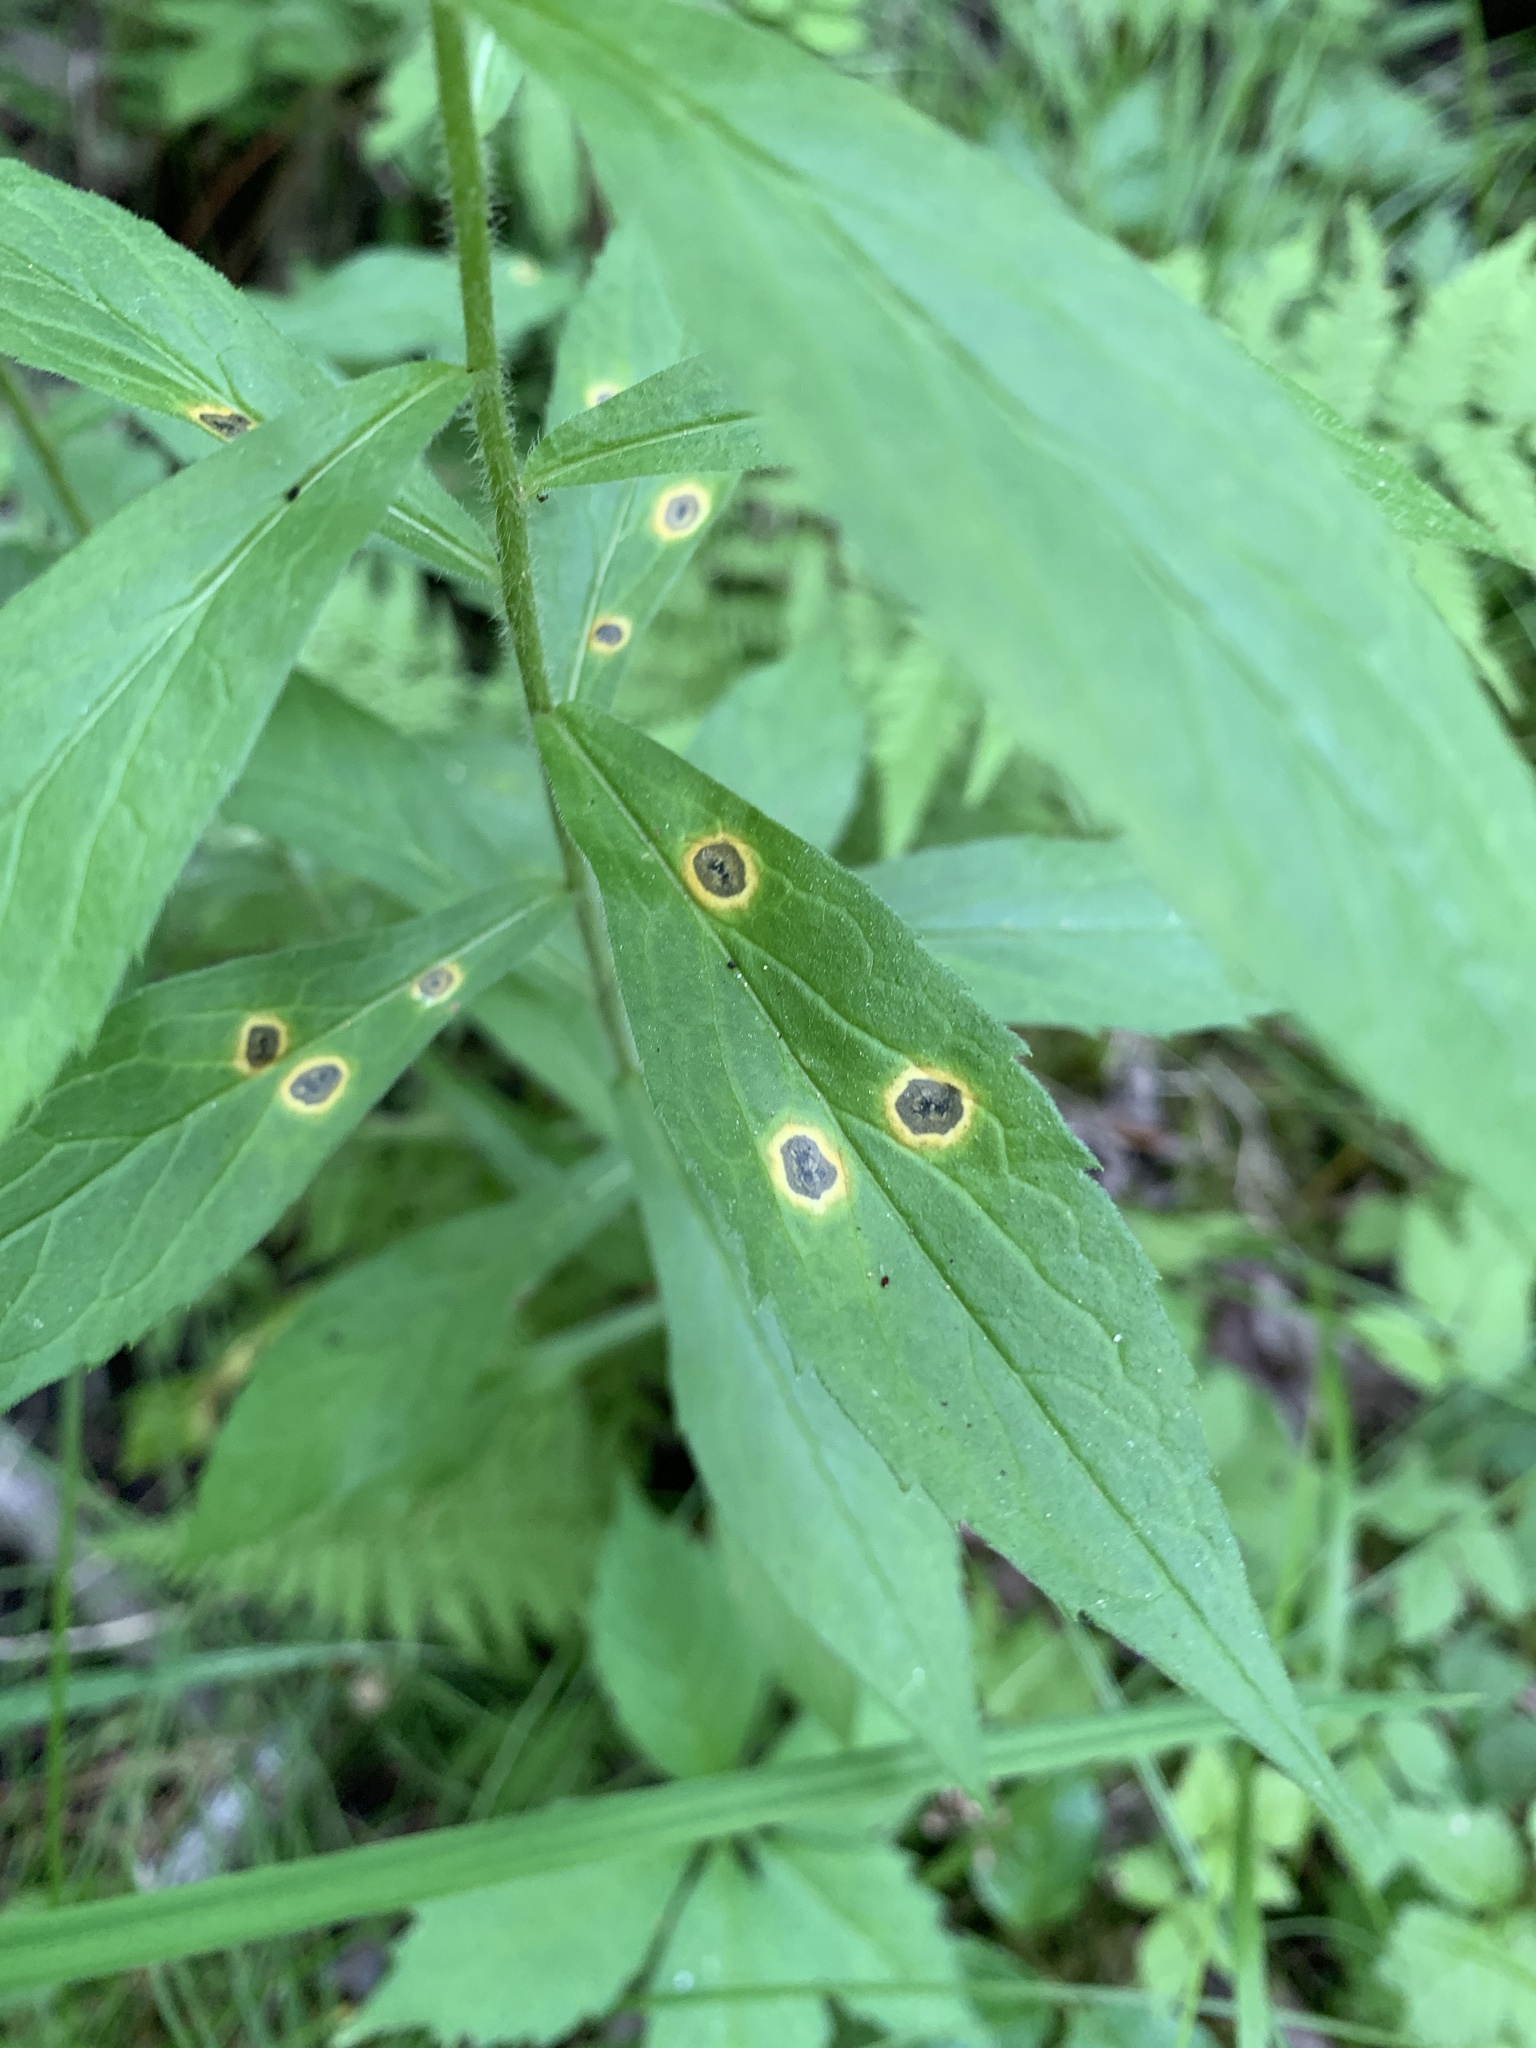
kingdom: Animalia
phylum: Arthropoda
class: Insecta
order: Diptera
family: Cecidomyiidae
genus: Asteromyia
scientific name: Asteromyia carbonifera
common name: Carbonifera goldenrod gall midge
